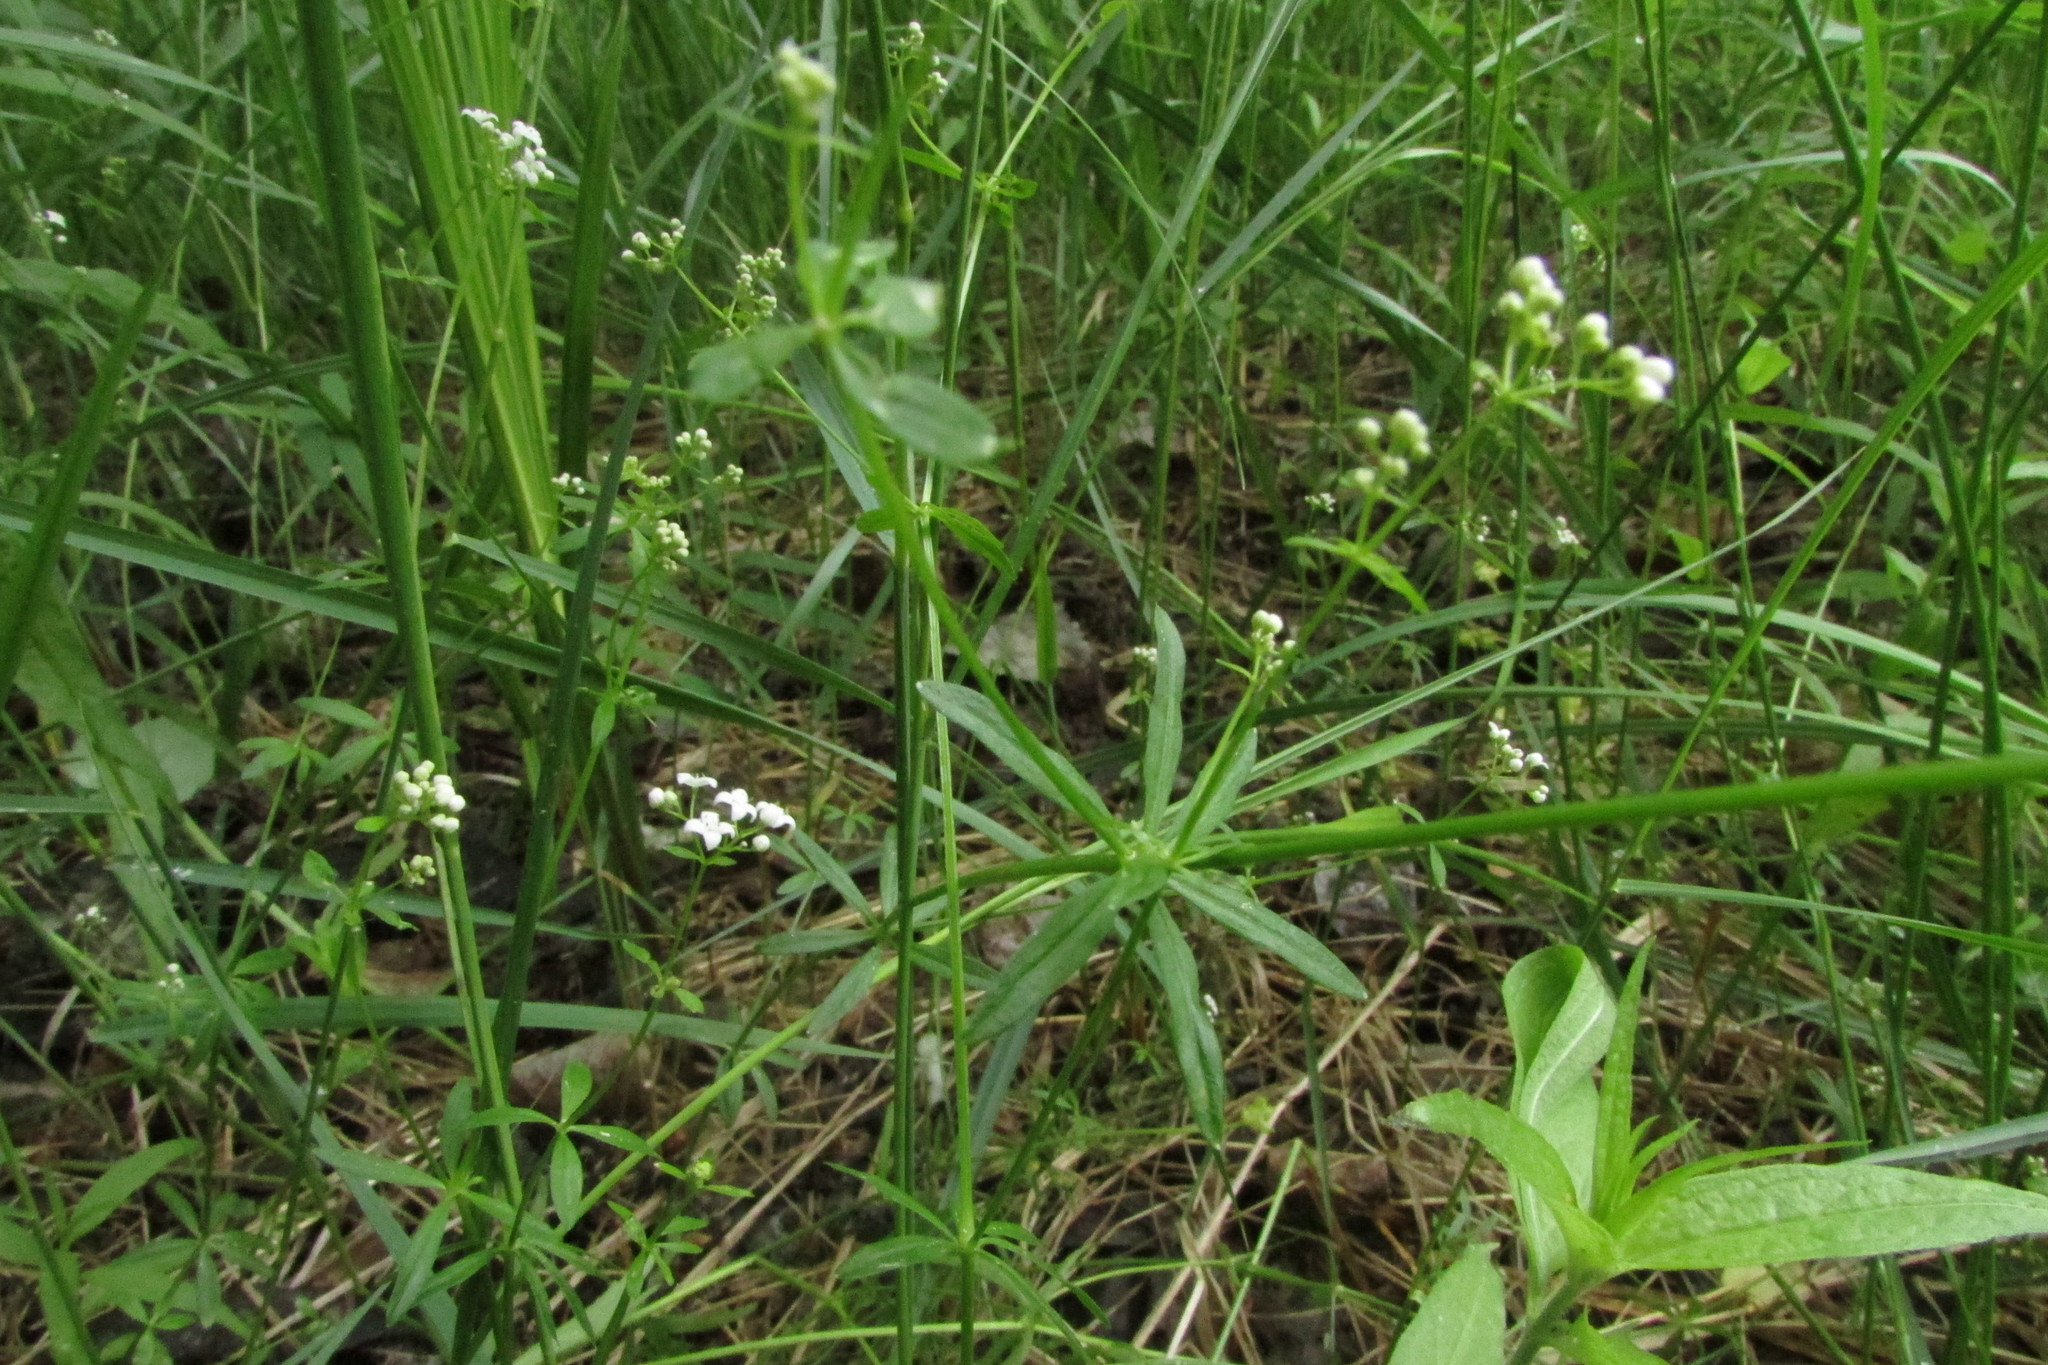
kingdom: Plantae
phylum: Tracheophyta
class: Magnoliopsida
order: Gentianales
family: Rubiaceae
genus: Galium
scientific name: Galium palustre
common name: Common marsh-bedstraw
